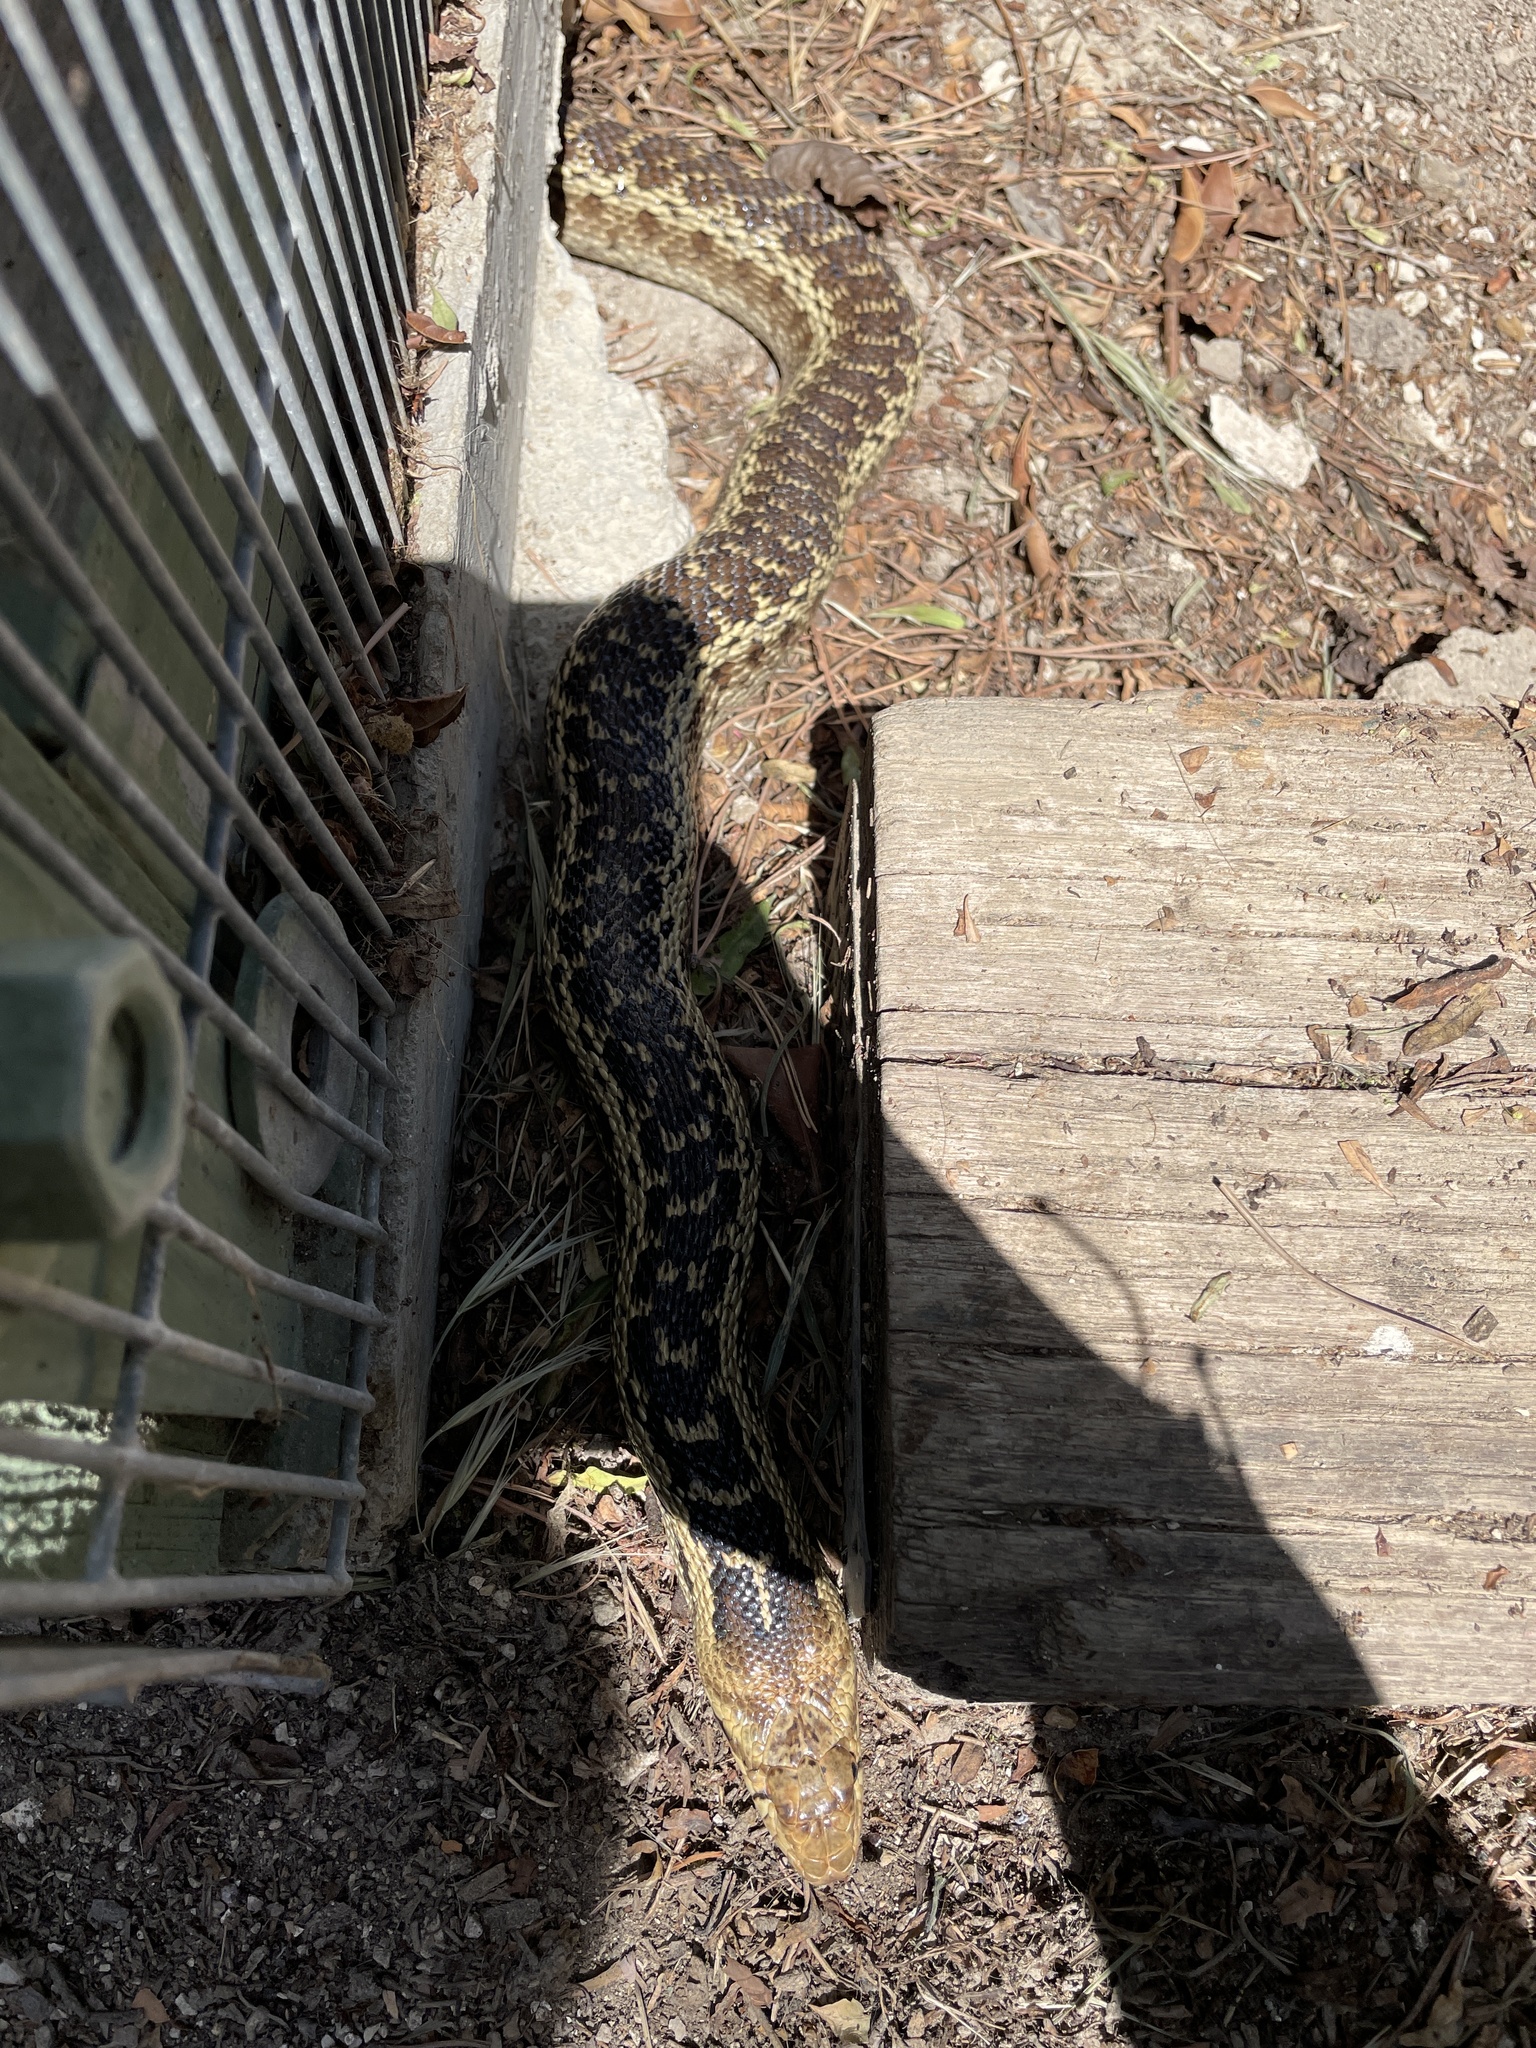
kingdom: Animalia
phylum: Chordata
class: Squamata
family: Colubridae
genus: Pituophis
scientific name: Pituophis catenifer
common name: Gopher snake
